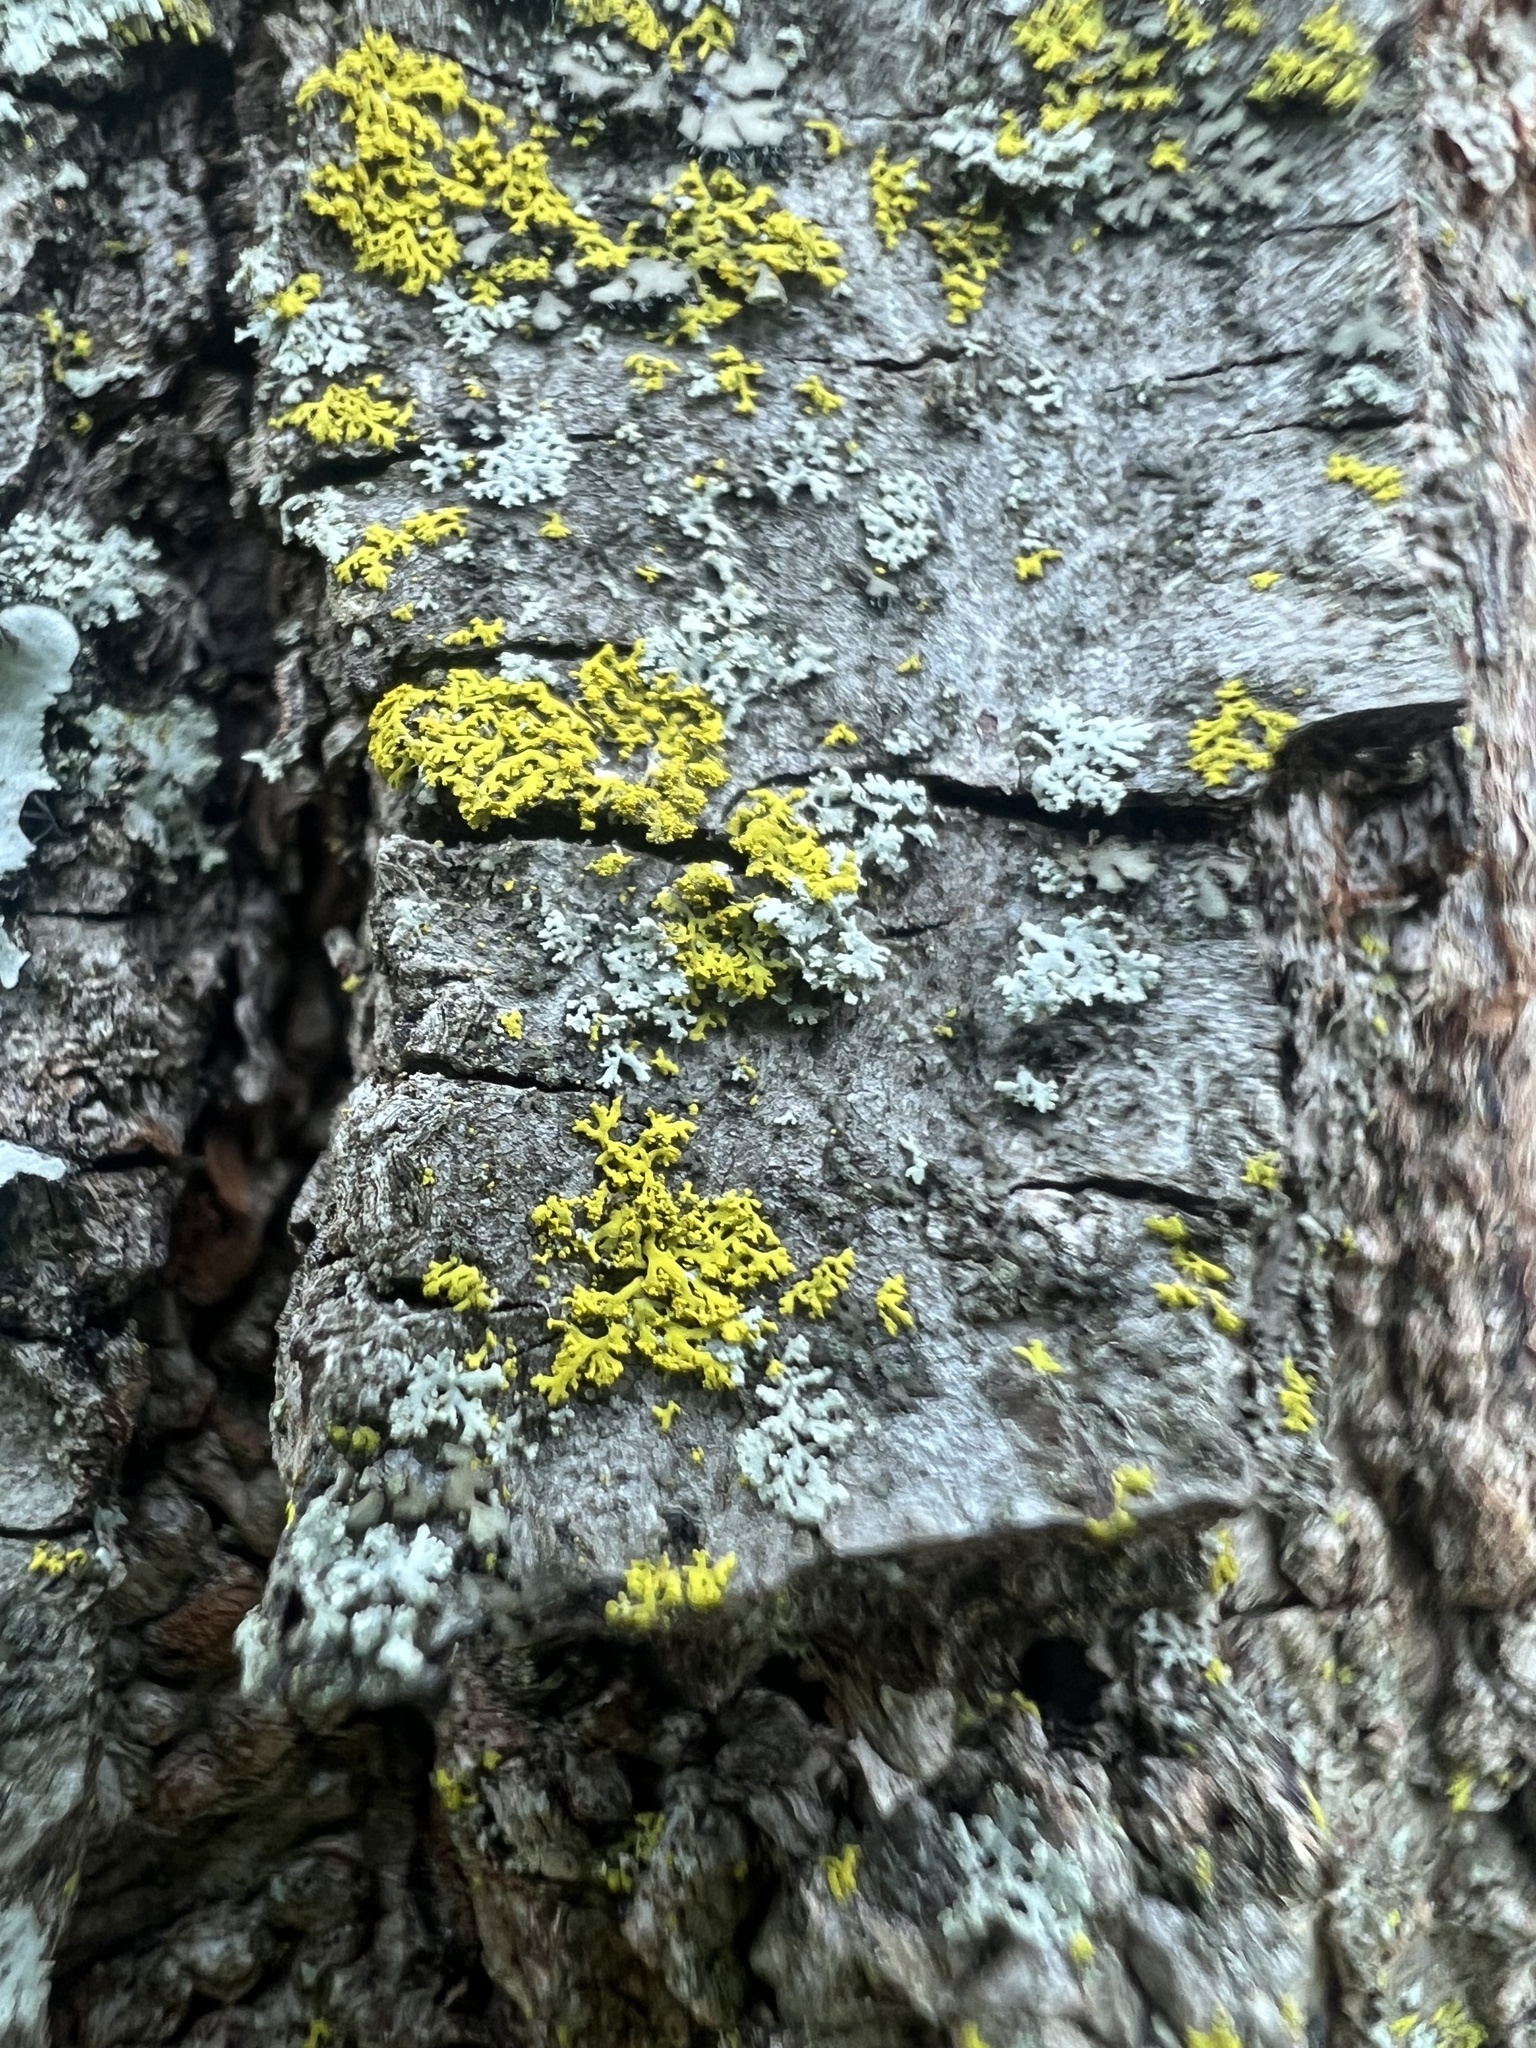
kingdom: Fungi
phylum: Ascomycota
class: Candelariomycetes
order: Candelariales
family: Candelariaceae
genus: Candelaria
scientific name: Candelaria concolor
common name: Candleflame lichen
